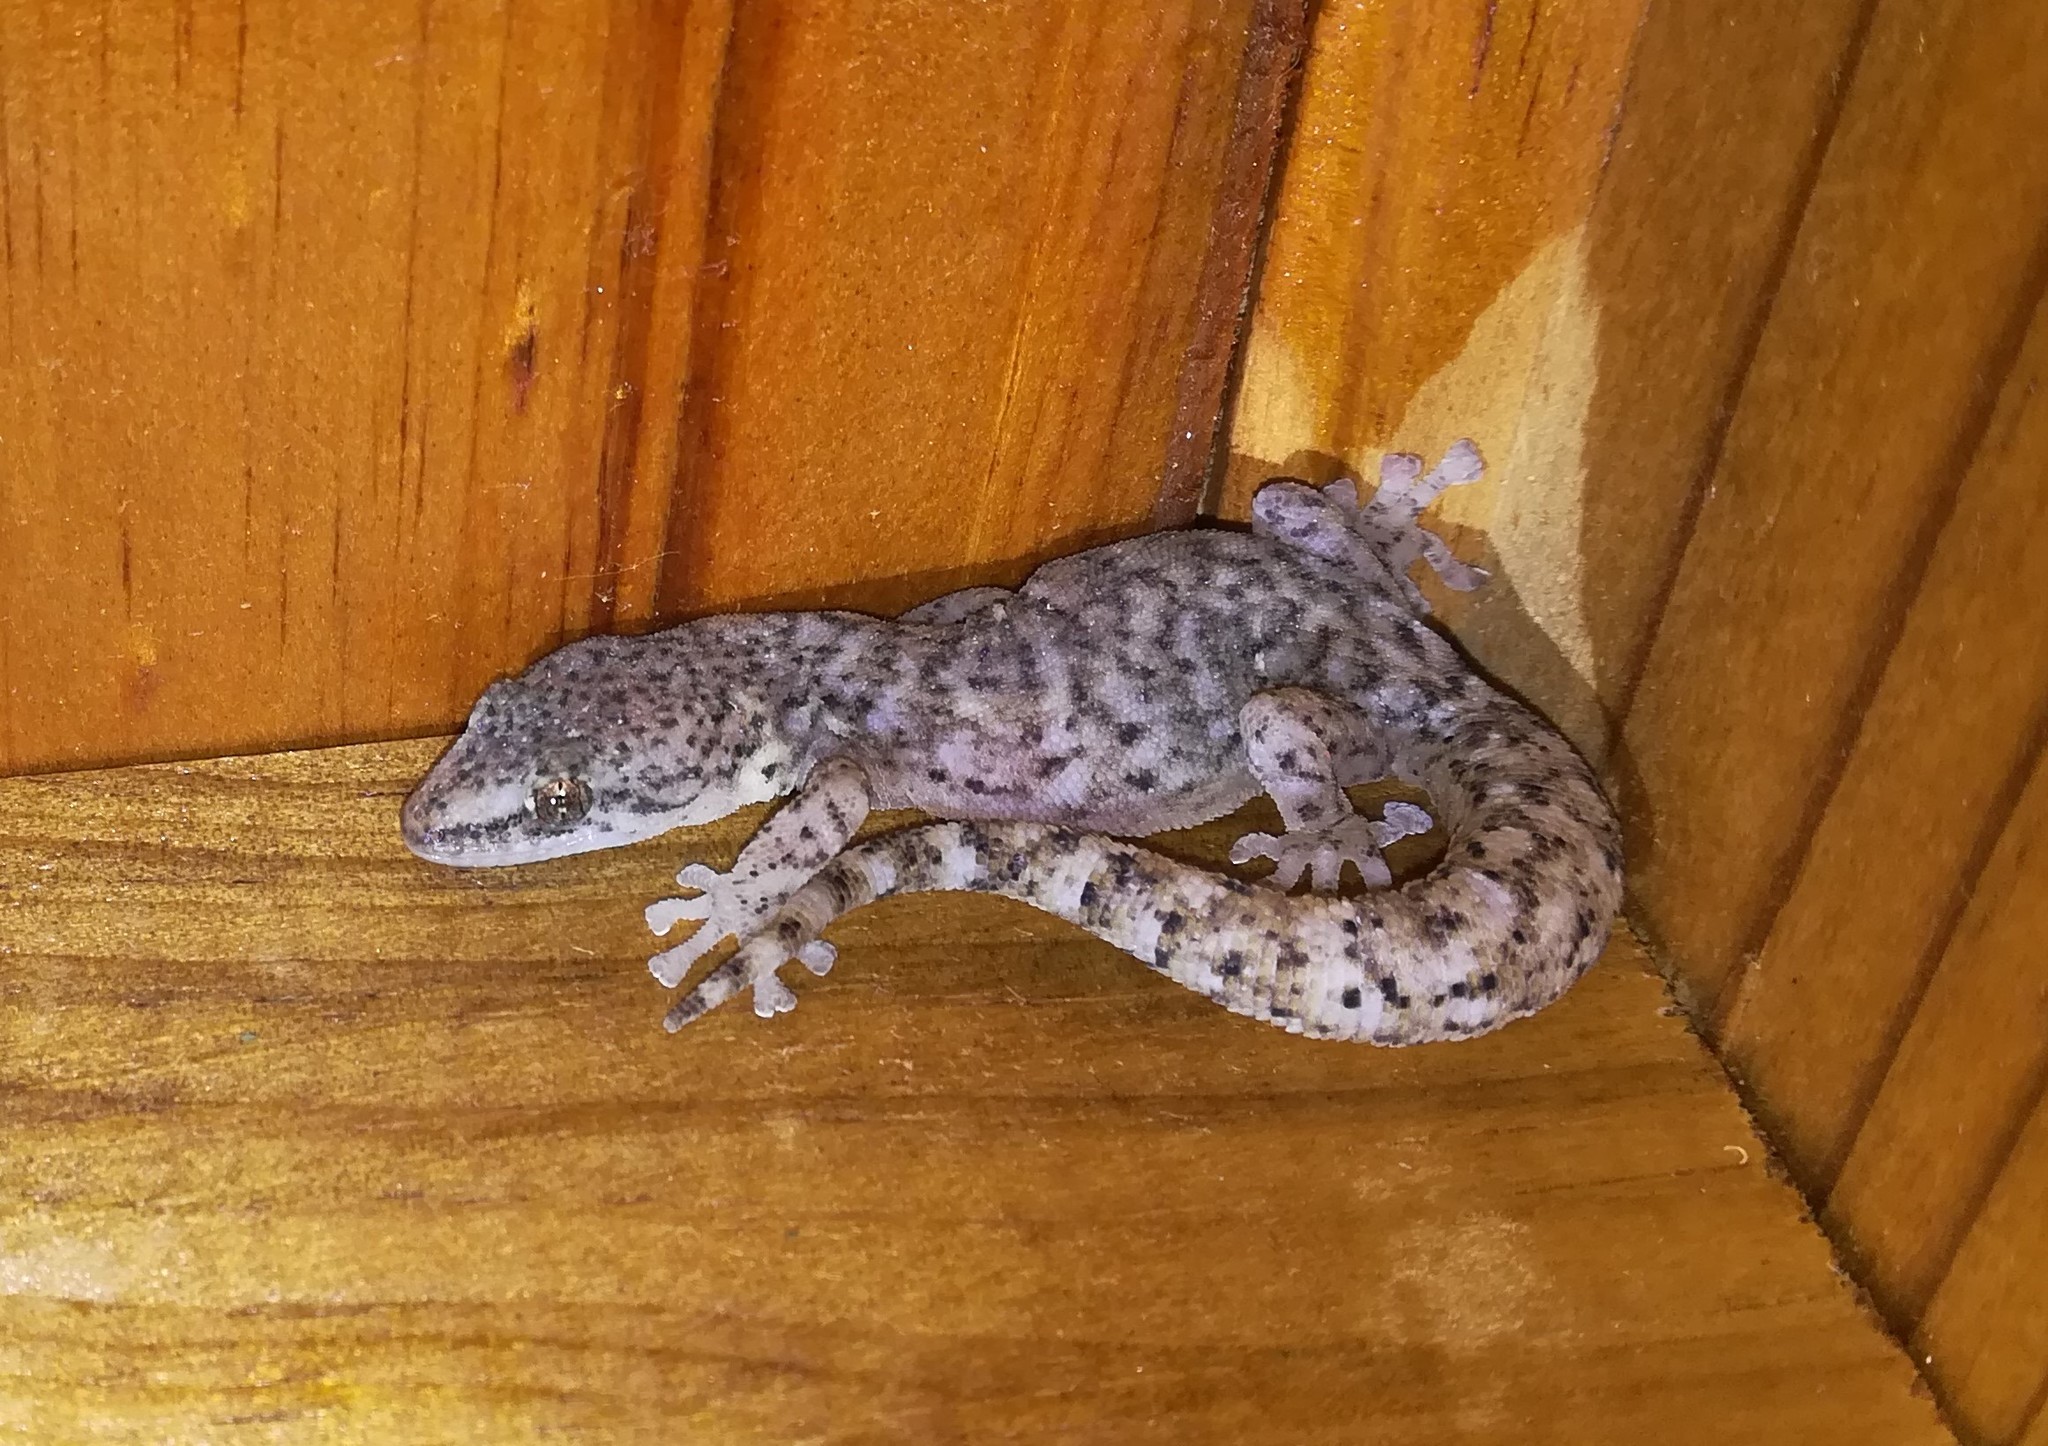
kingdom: Animalia
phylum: Chordata
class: Squamata
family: Gekkonidae
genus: Afrogecko
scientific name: Afrogecko porphyreus
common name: Marbled leaf-toed gecko
